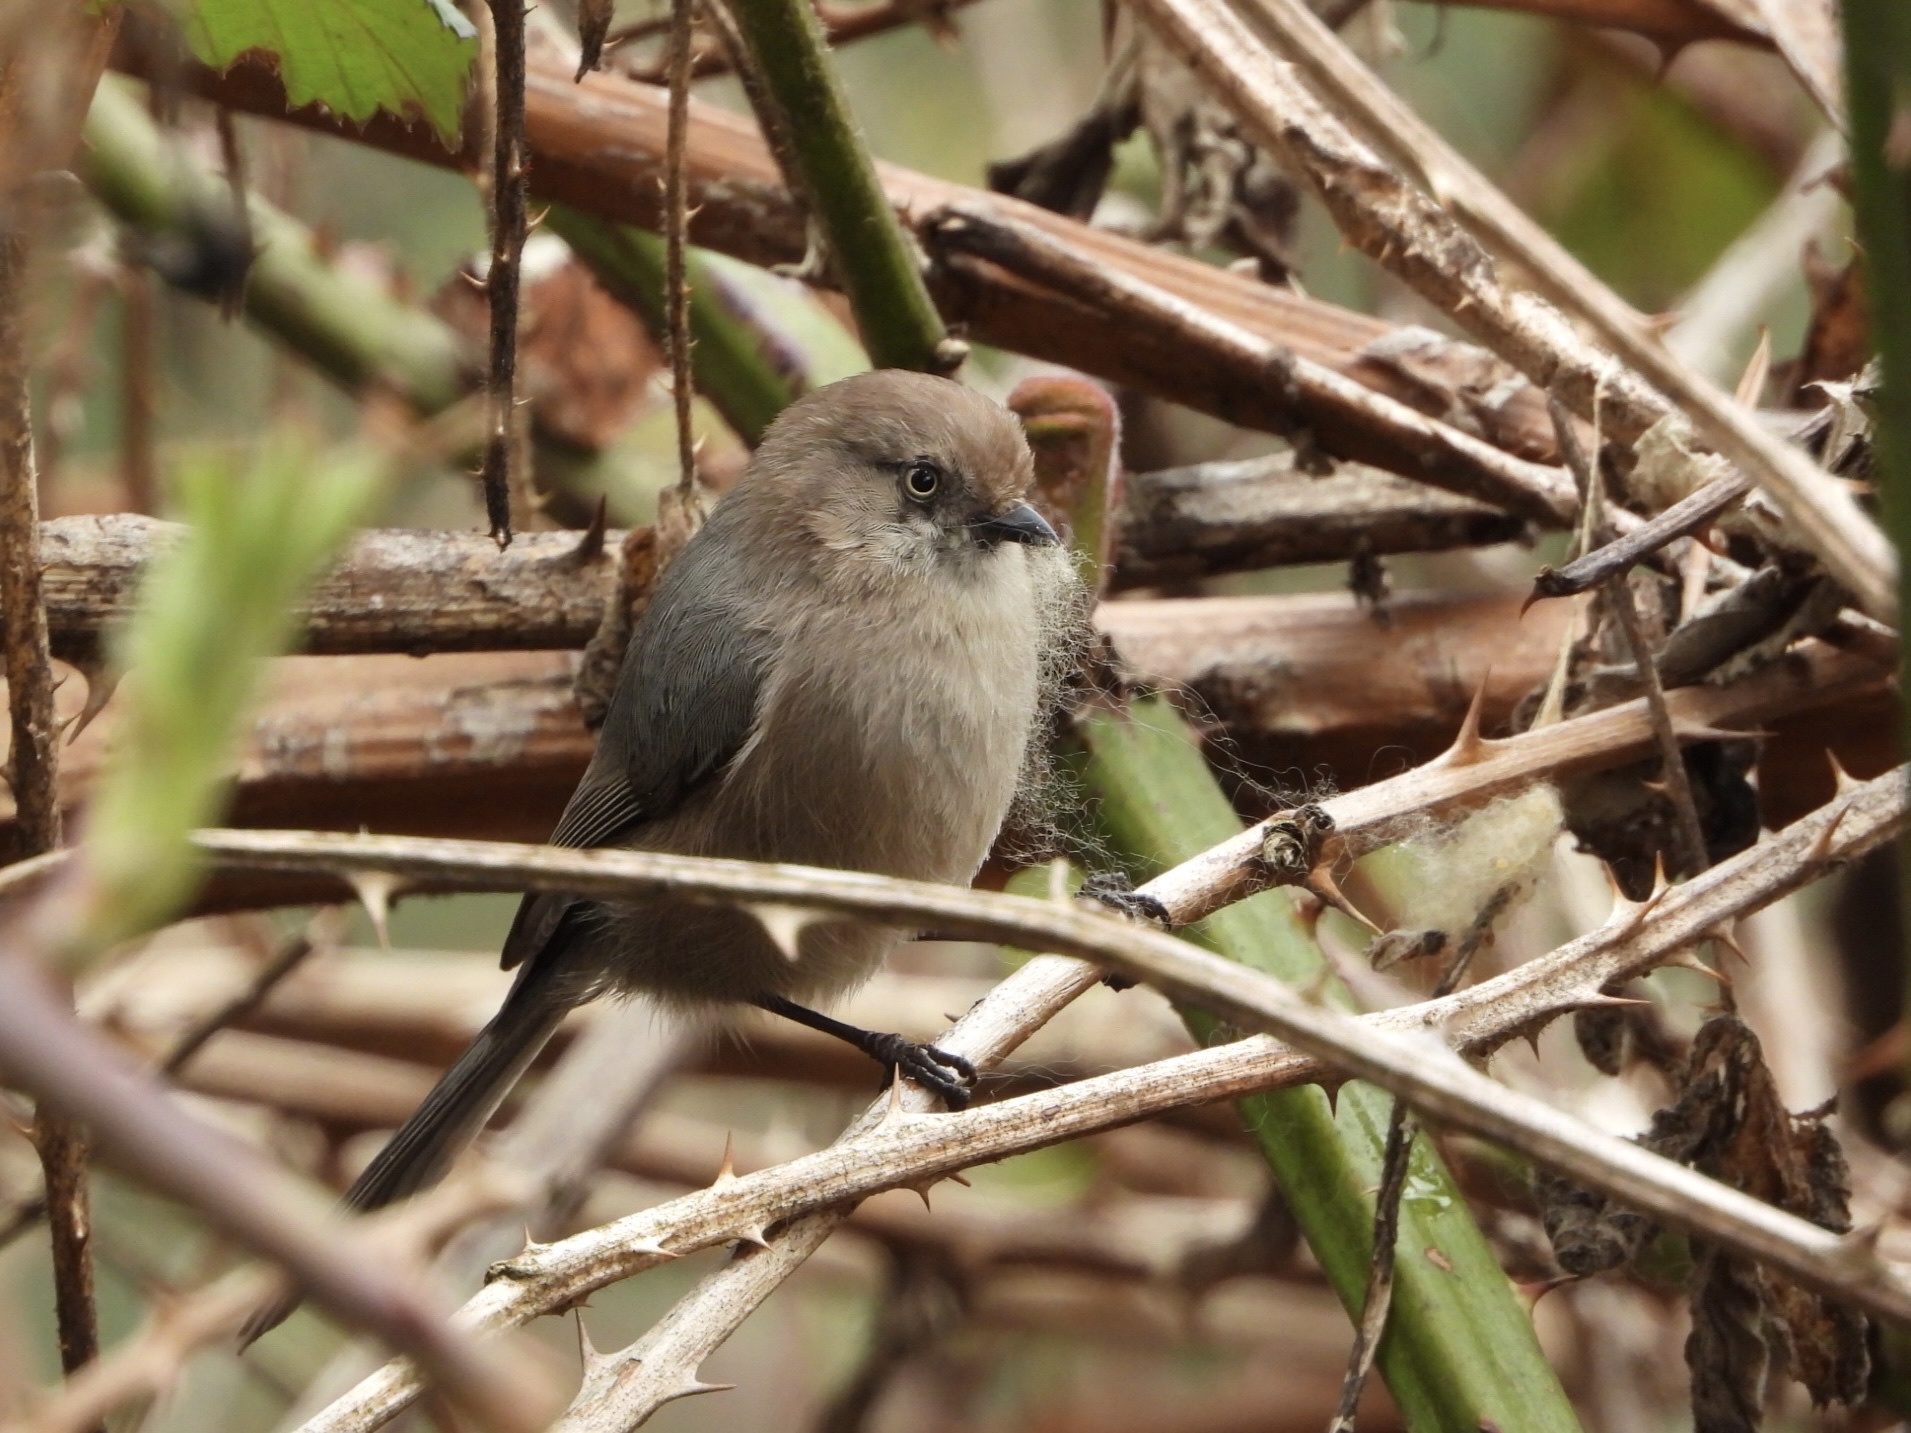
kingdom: Animalia
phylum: Chordata
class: Aves
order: Passeriformes
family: Aegithalidae
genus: Psaltriparus
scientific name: Psaltriparus minimus
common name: American bushtit
